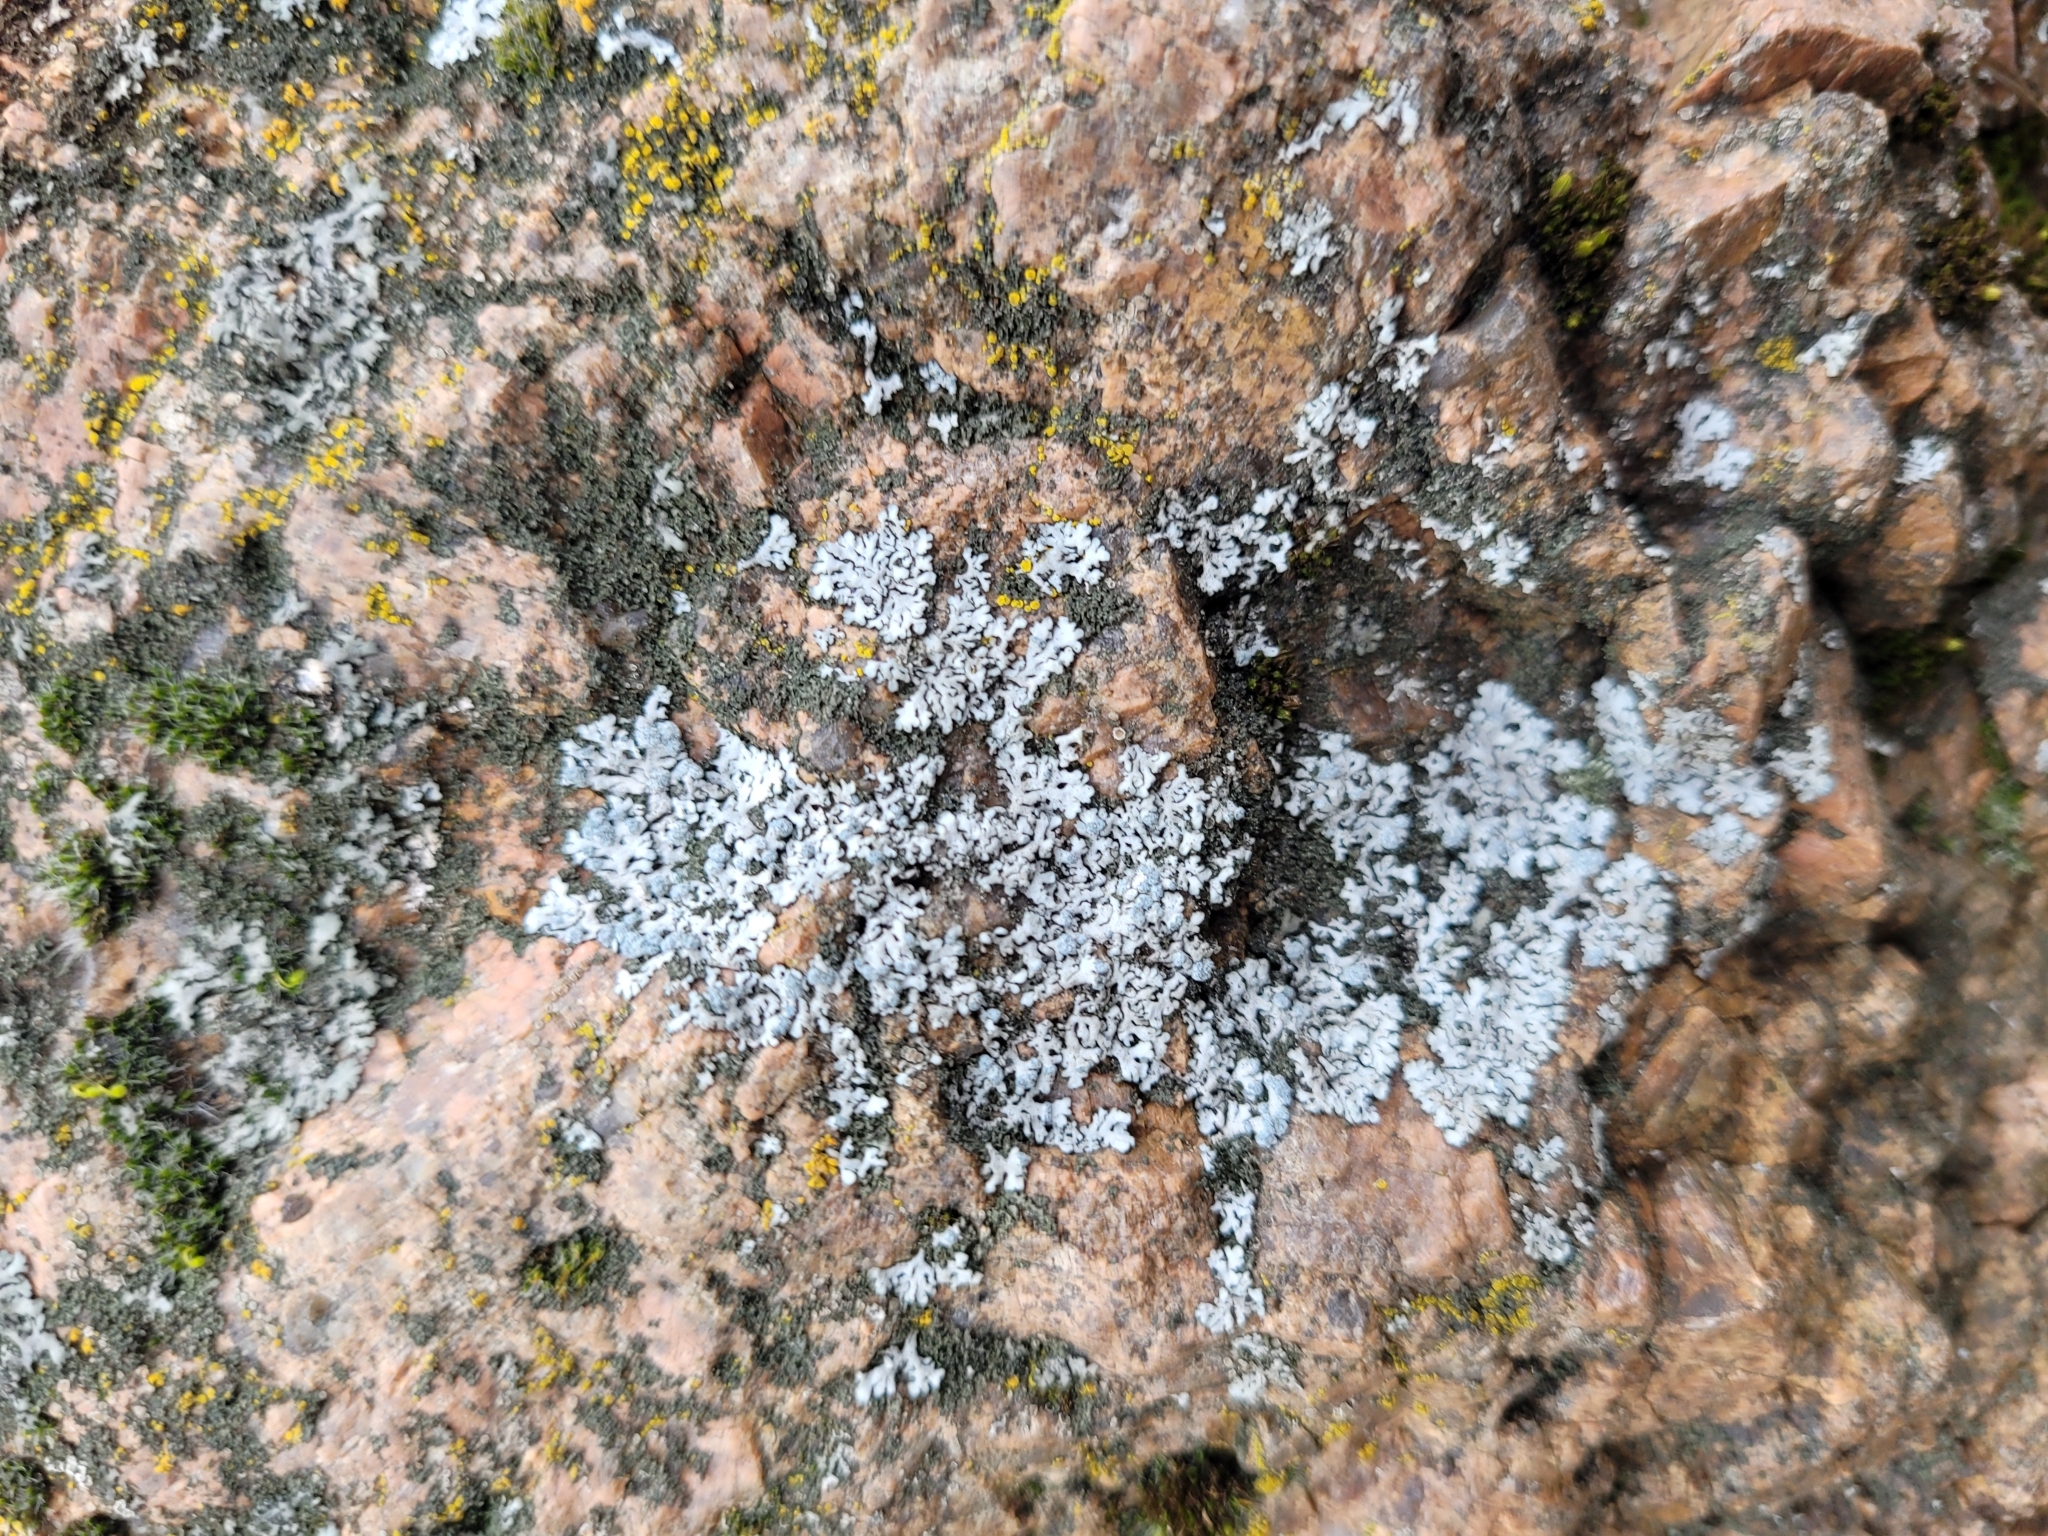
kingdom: Fungi
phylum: Ascomycota
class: Lecanoromycetes
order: Caliciales
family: Physciaceae
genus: Physcia
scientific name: Physcia caesia
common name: Blue-gray rosette lichen
